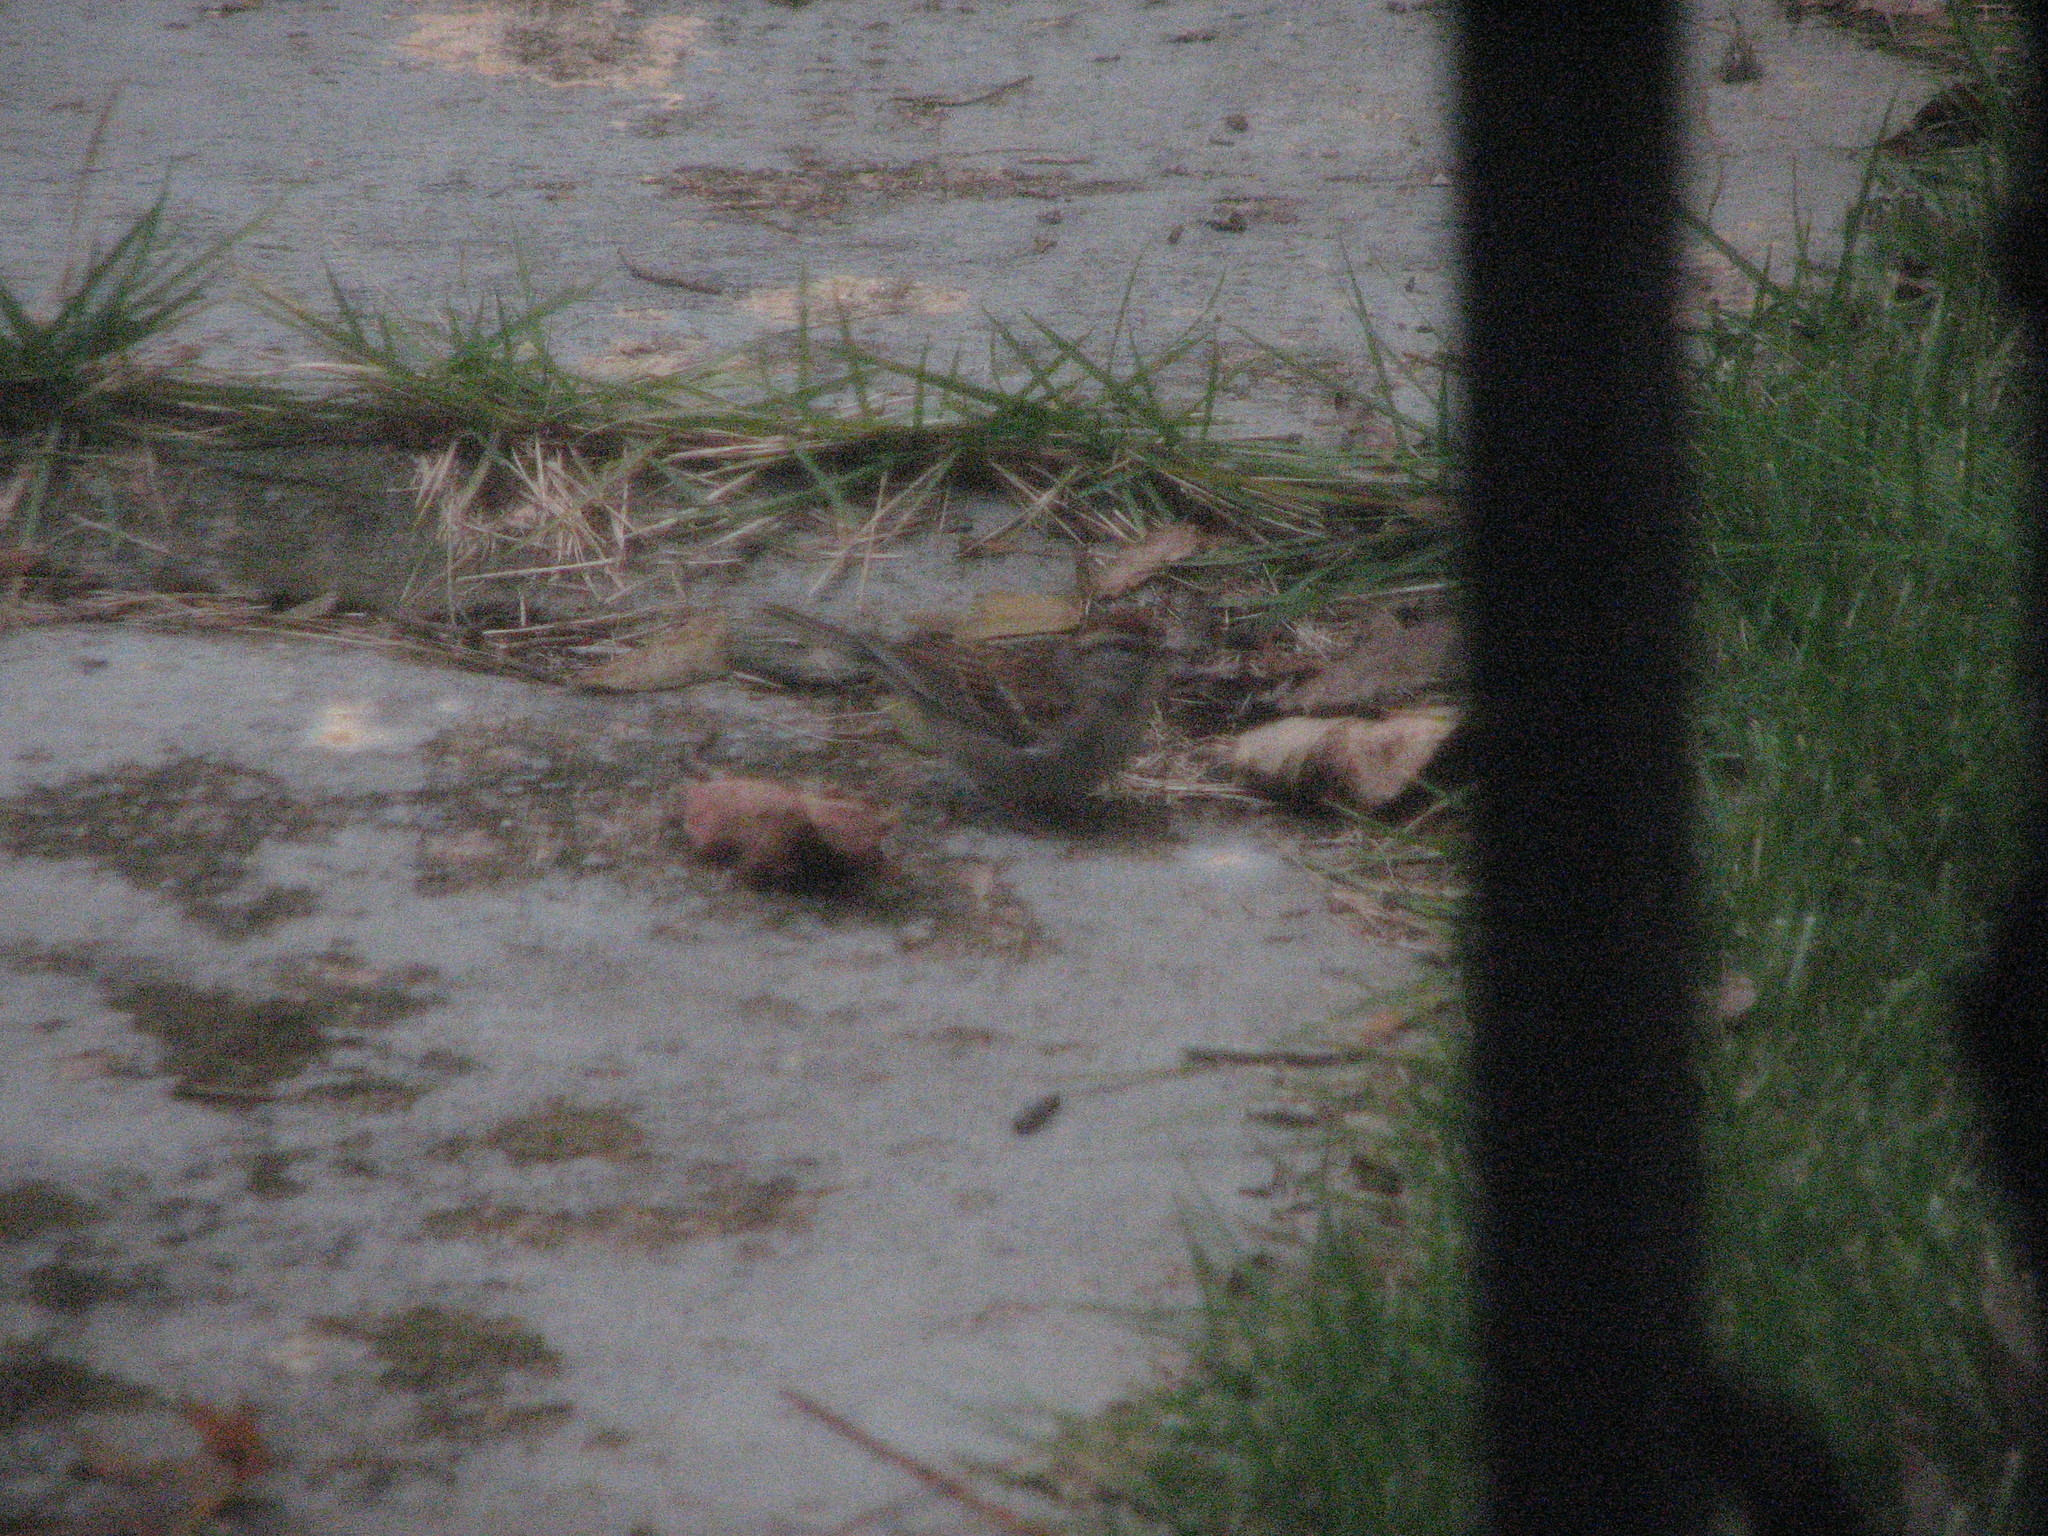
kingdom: Animalia
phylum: Chordata
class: Aves
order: Passeriformes
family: Passerellidae
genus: Spizella
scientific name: Spizella passerina
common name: Chipping sparrow
